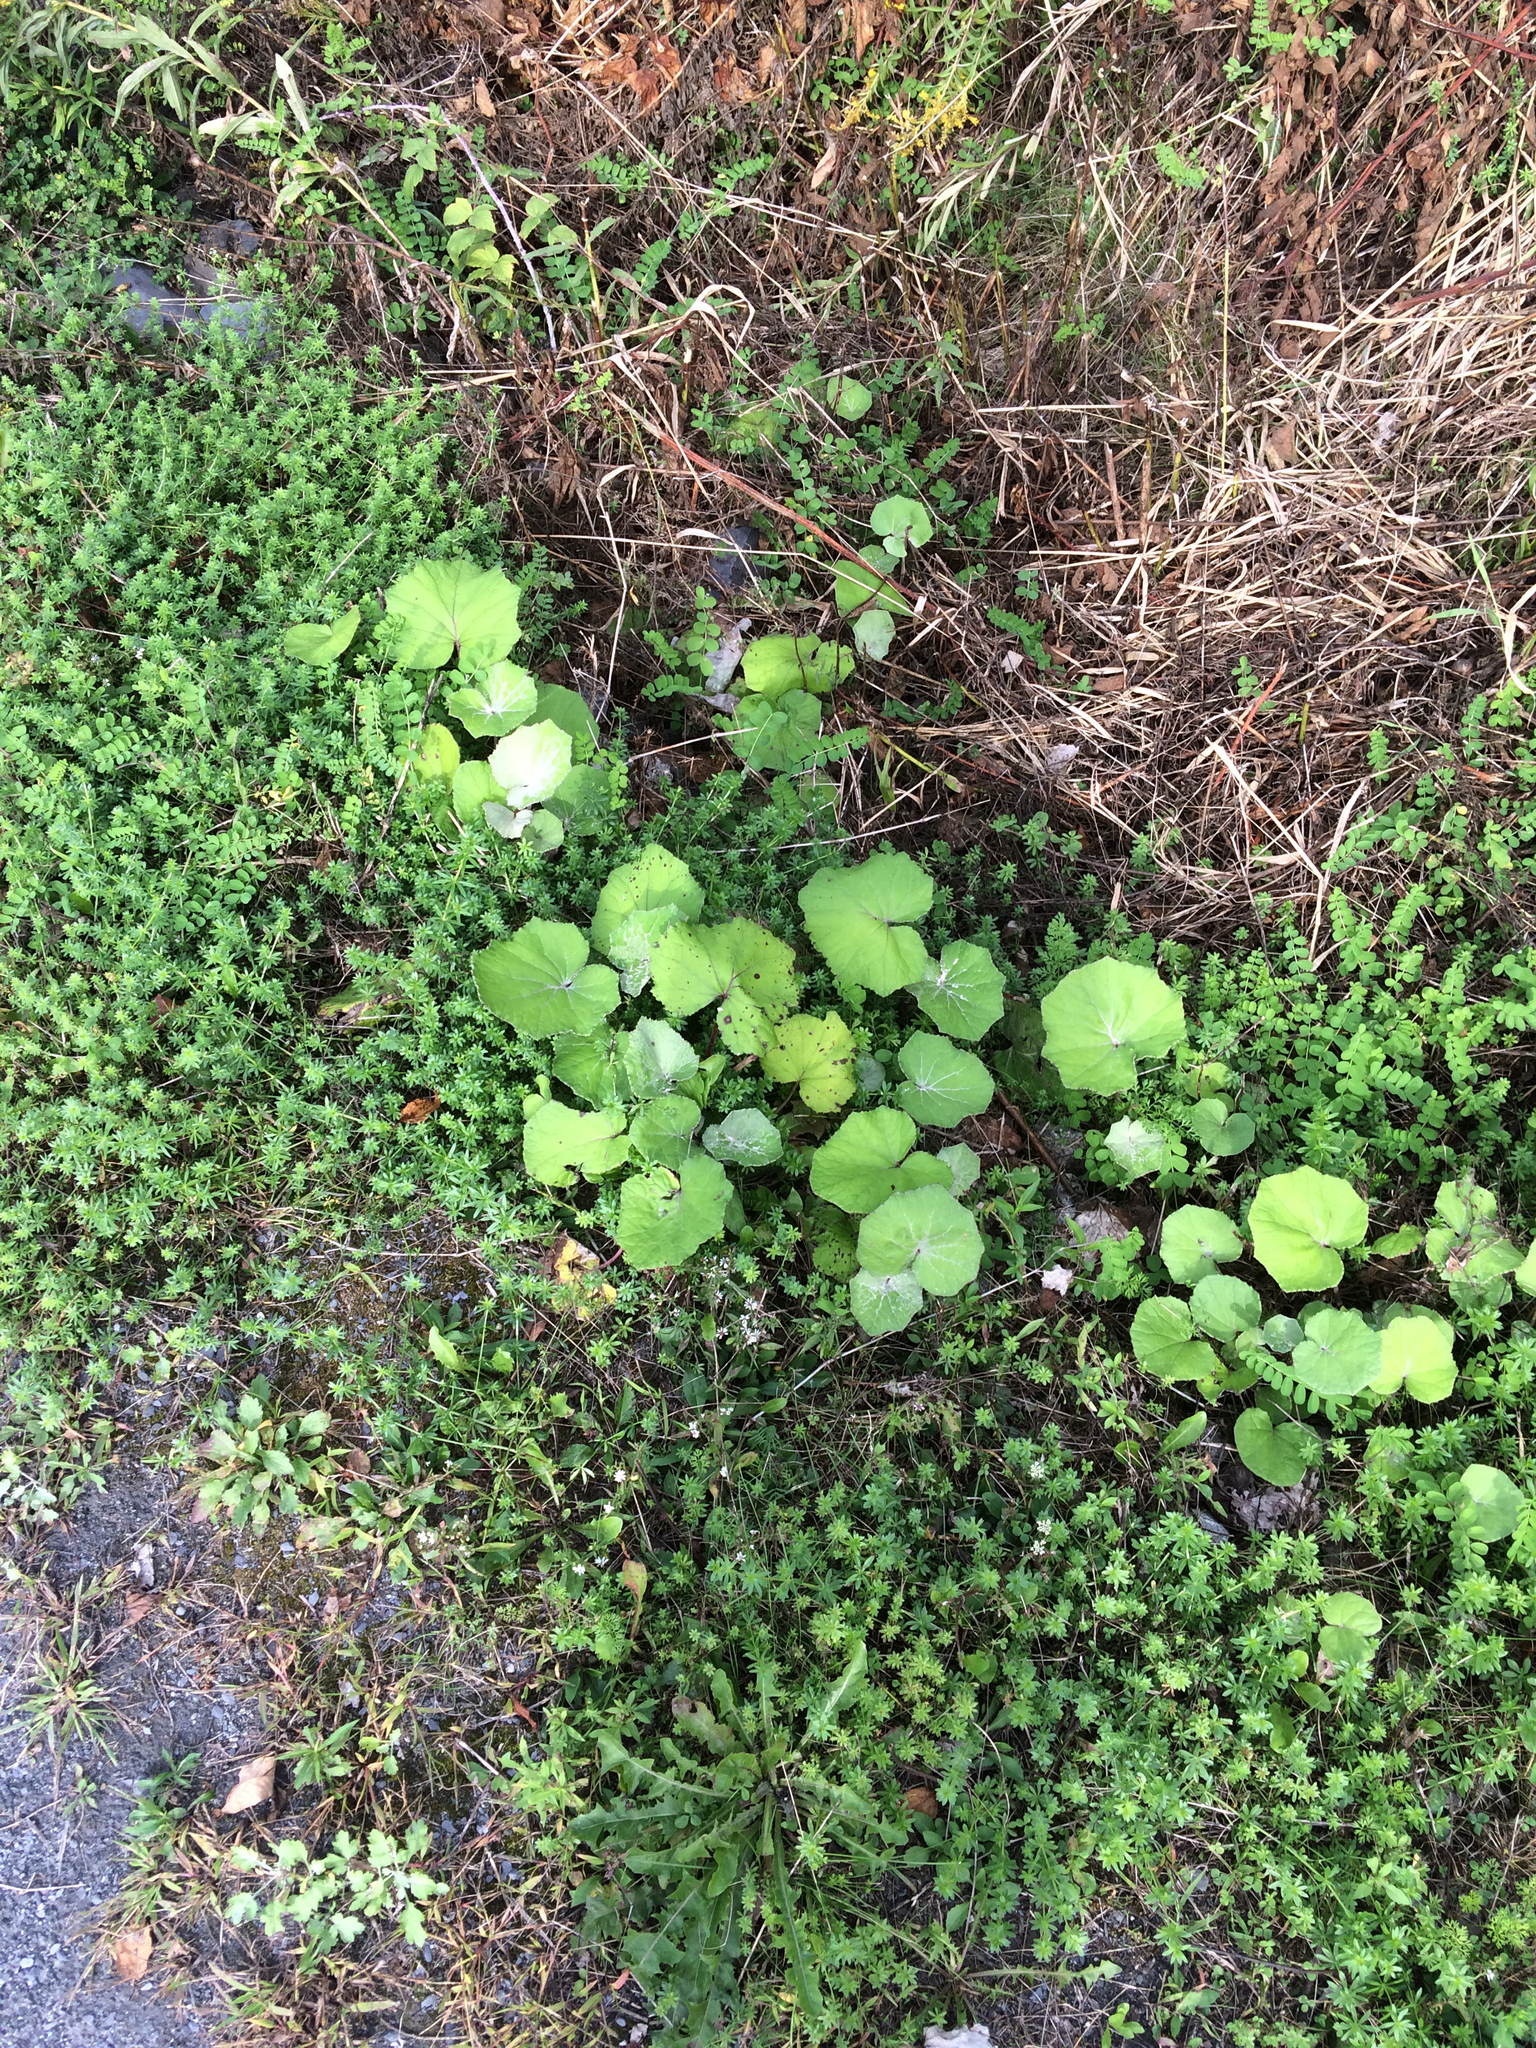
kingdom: Plantae
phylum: Tracheophyta
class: Magnoliopsida
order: Asterales
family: Asteraceae
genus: Tussilago
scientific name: Tussilago farfara
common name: Coltsfoot
